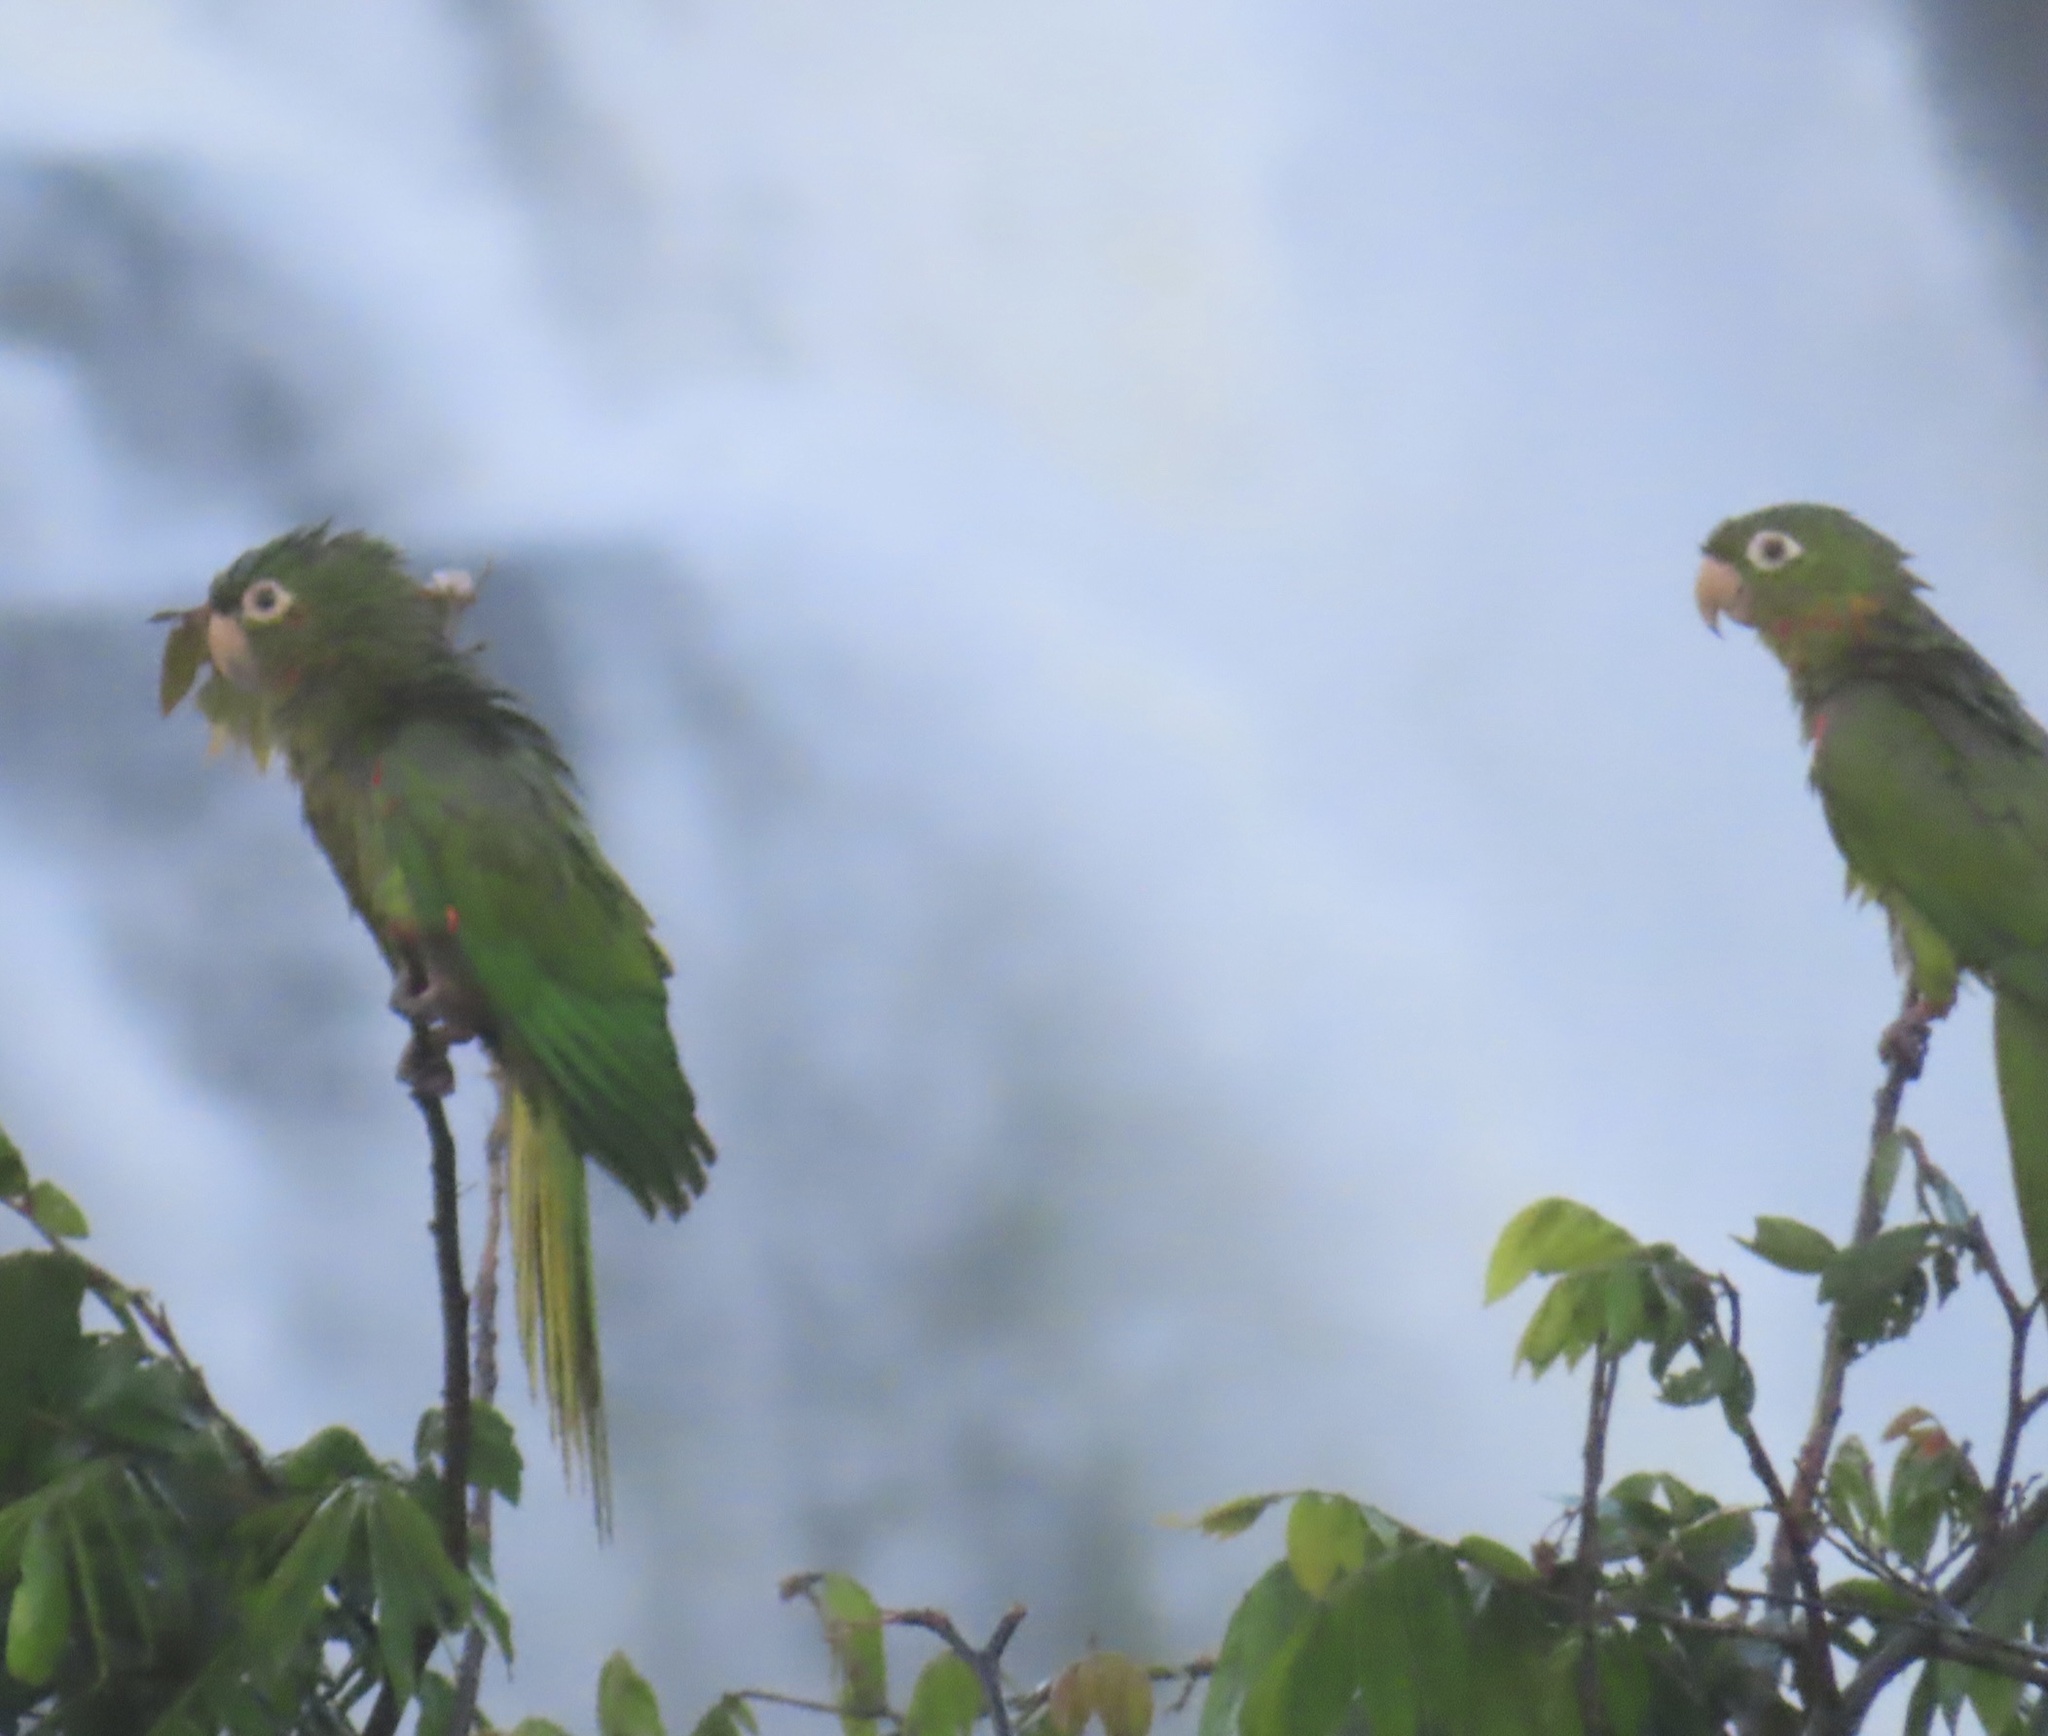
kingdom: Animalia
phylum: Chordata
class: Aves
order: Psittaciformes
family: Psittacidae
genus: Aratinga
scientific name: Aratinga leucophthalma
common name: White-eyed parakeet
